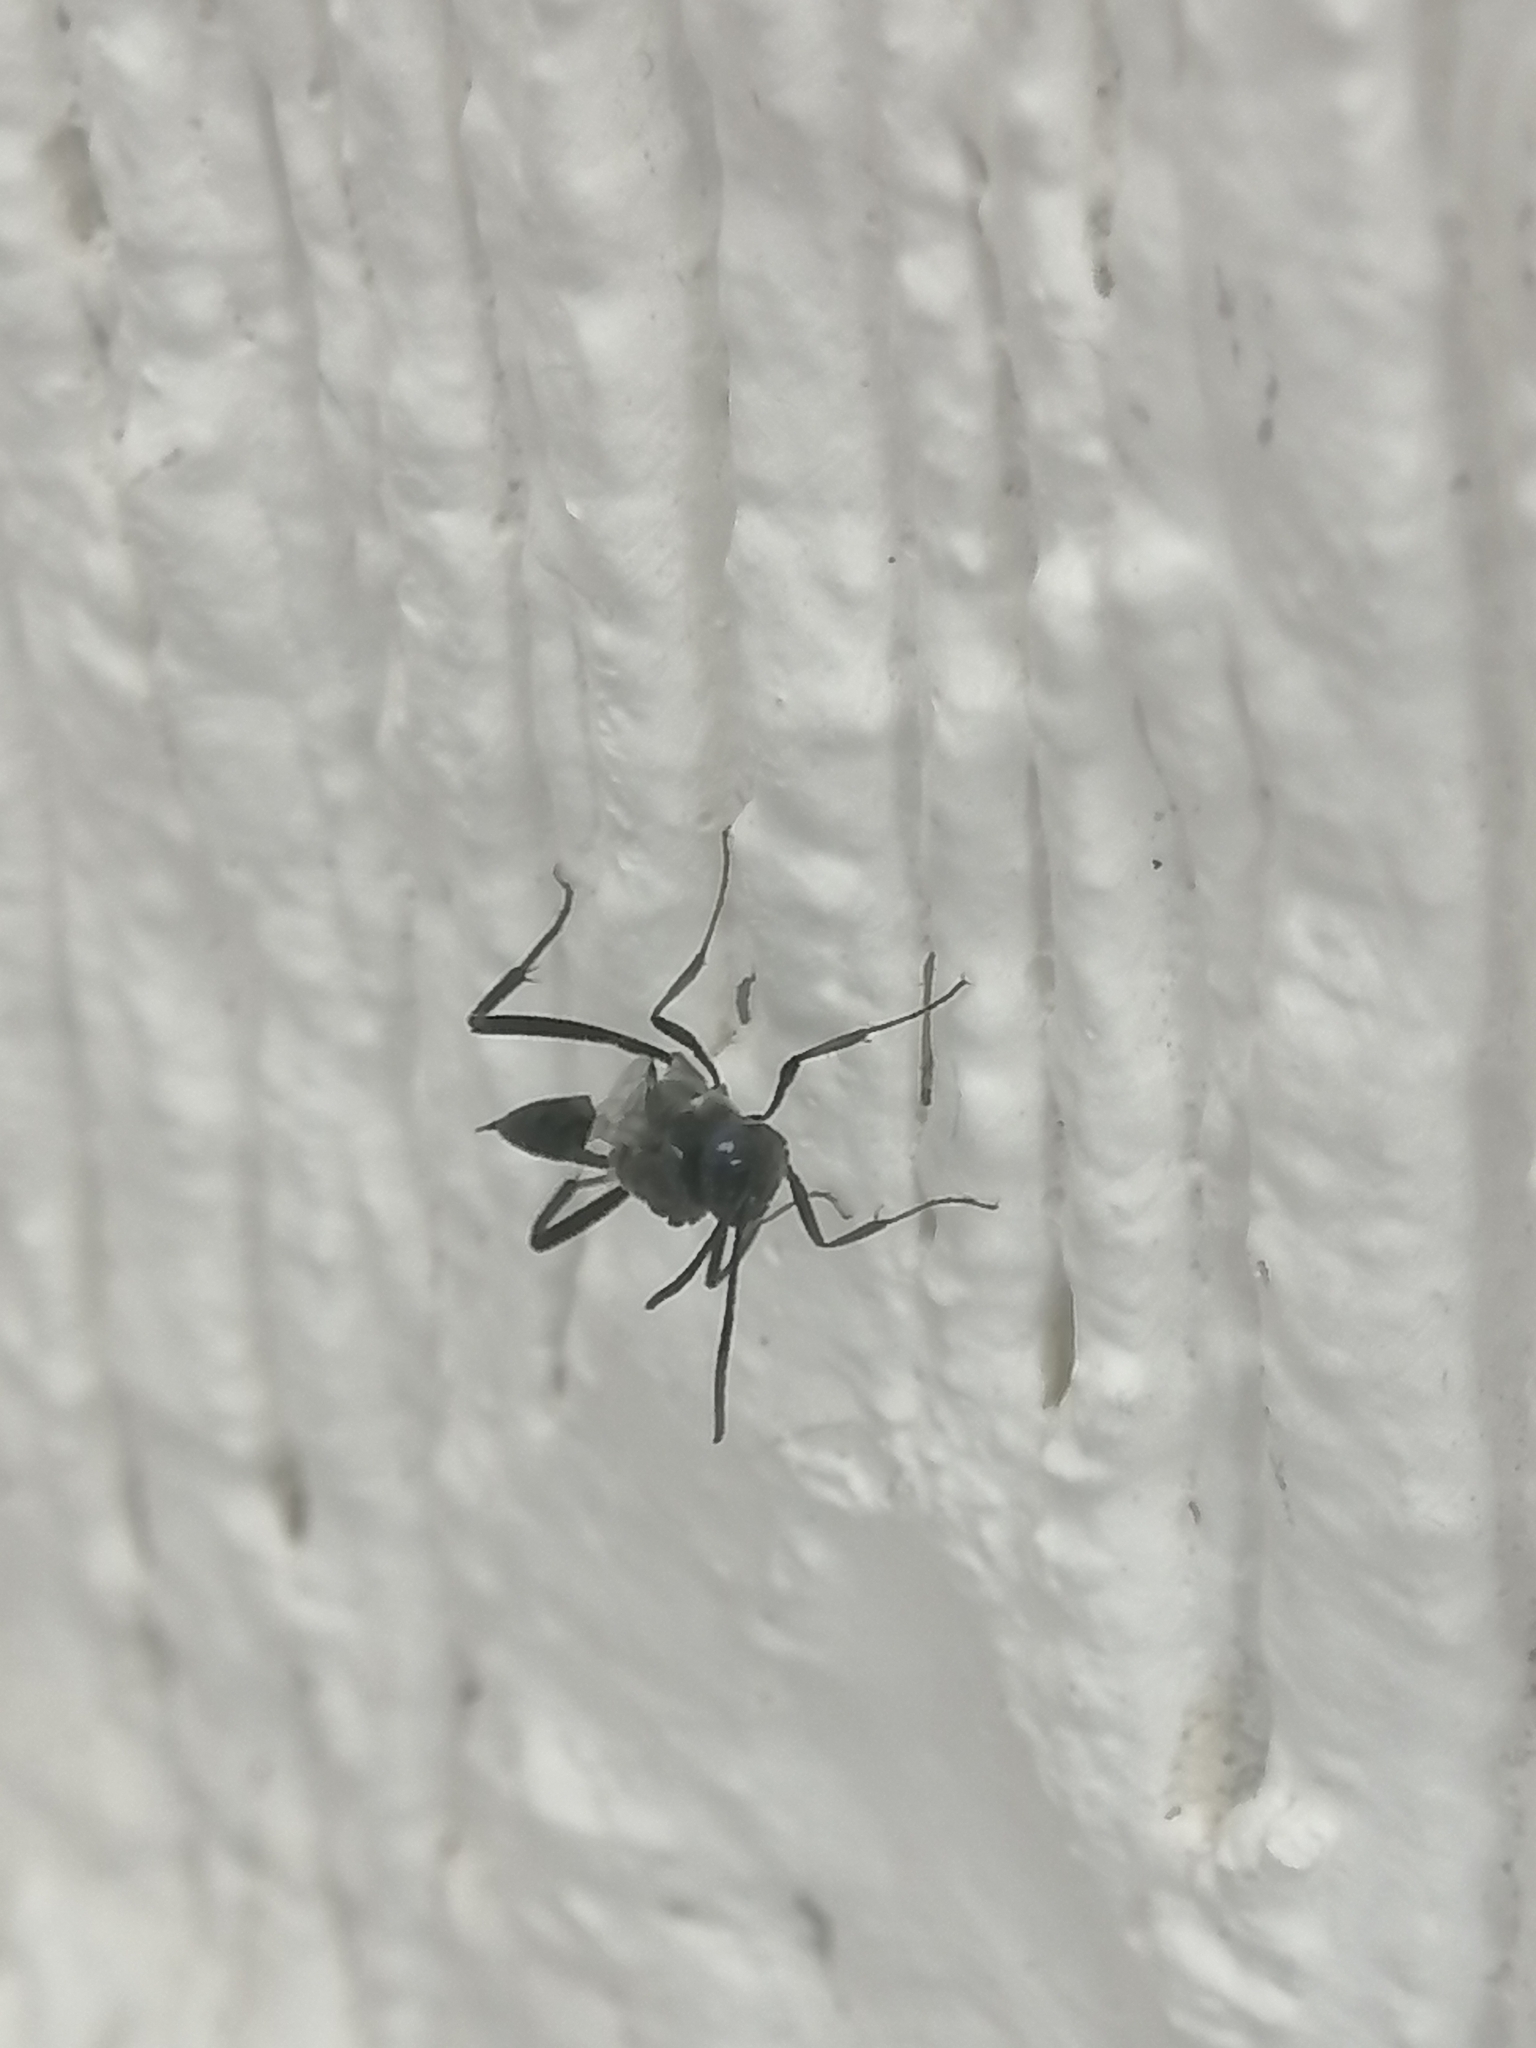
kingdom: Animalia
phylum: Arthropoda
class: Insecta
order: Hymenoptera
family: Evaniidae
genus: Evania
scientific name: Evania appendigaster
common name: Ensign wasp
